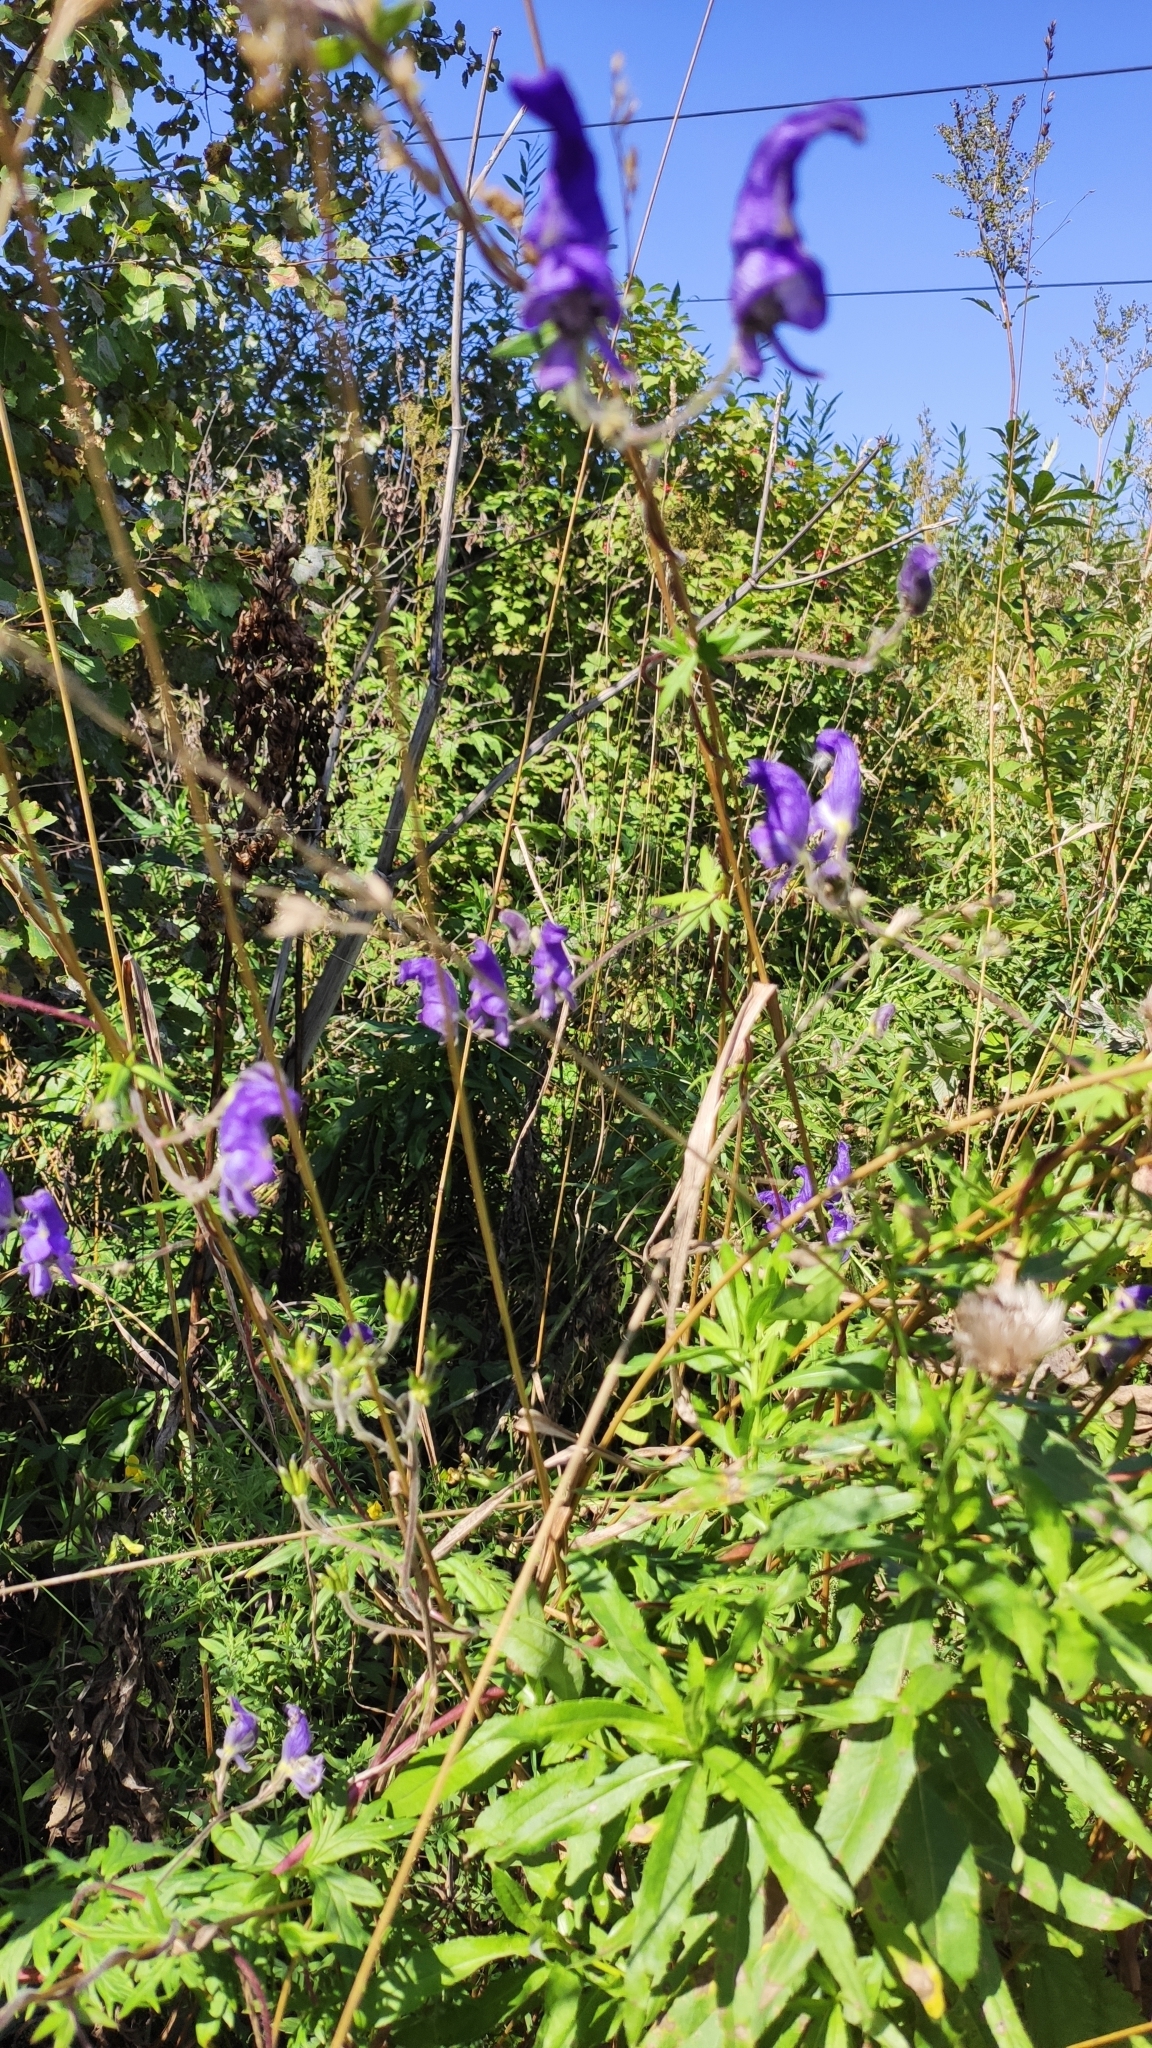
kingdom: Plantae
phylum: Tracheophyta
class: Magnoliopsida
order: Ranunculales
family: Ranunculaceae
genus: Aconitum
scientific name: Aconitum volubile
